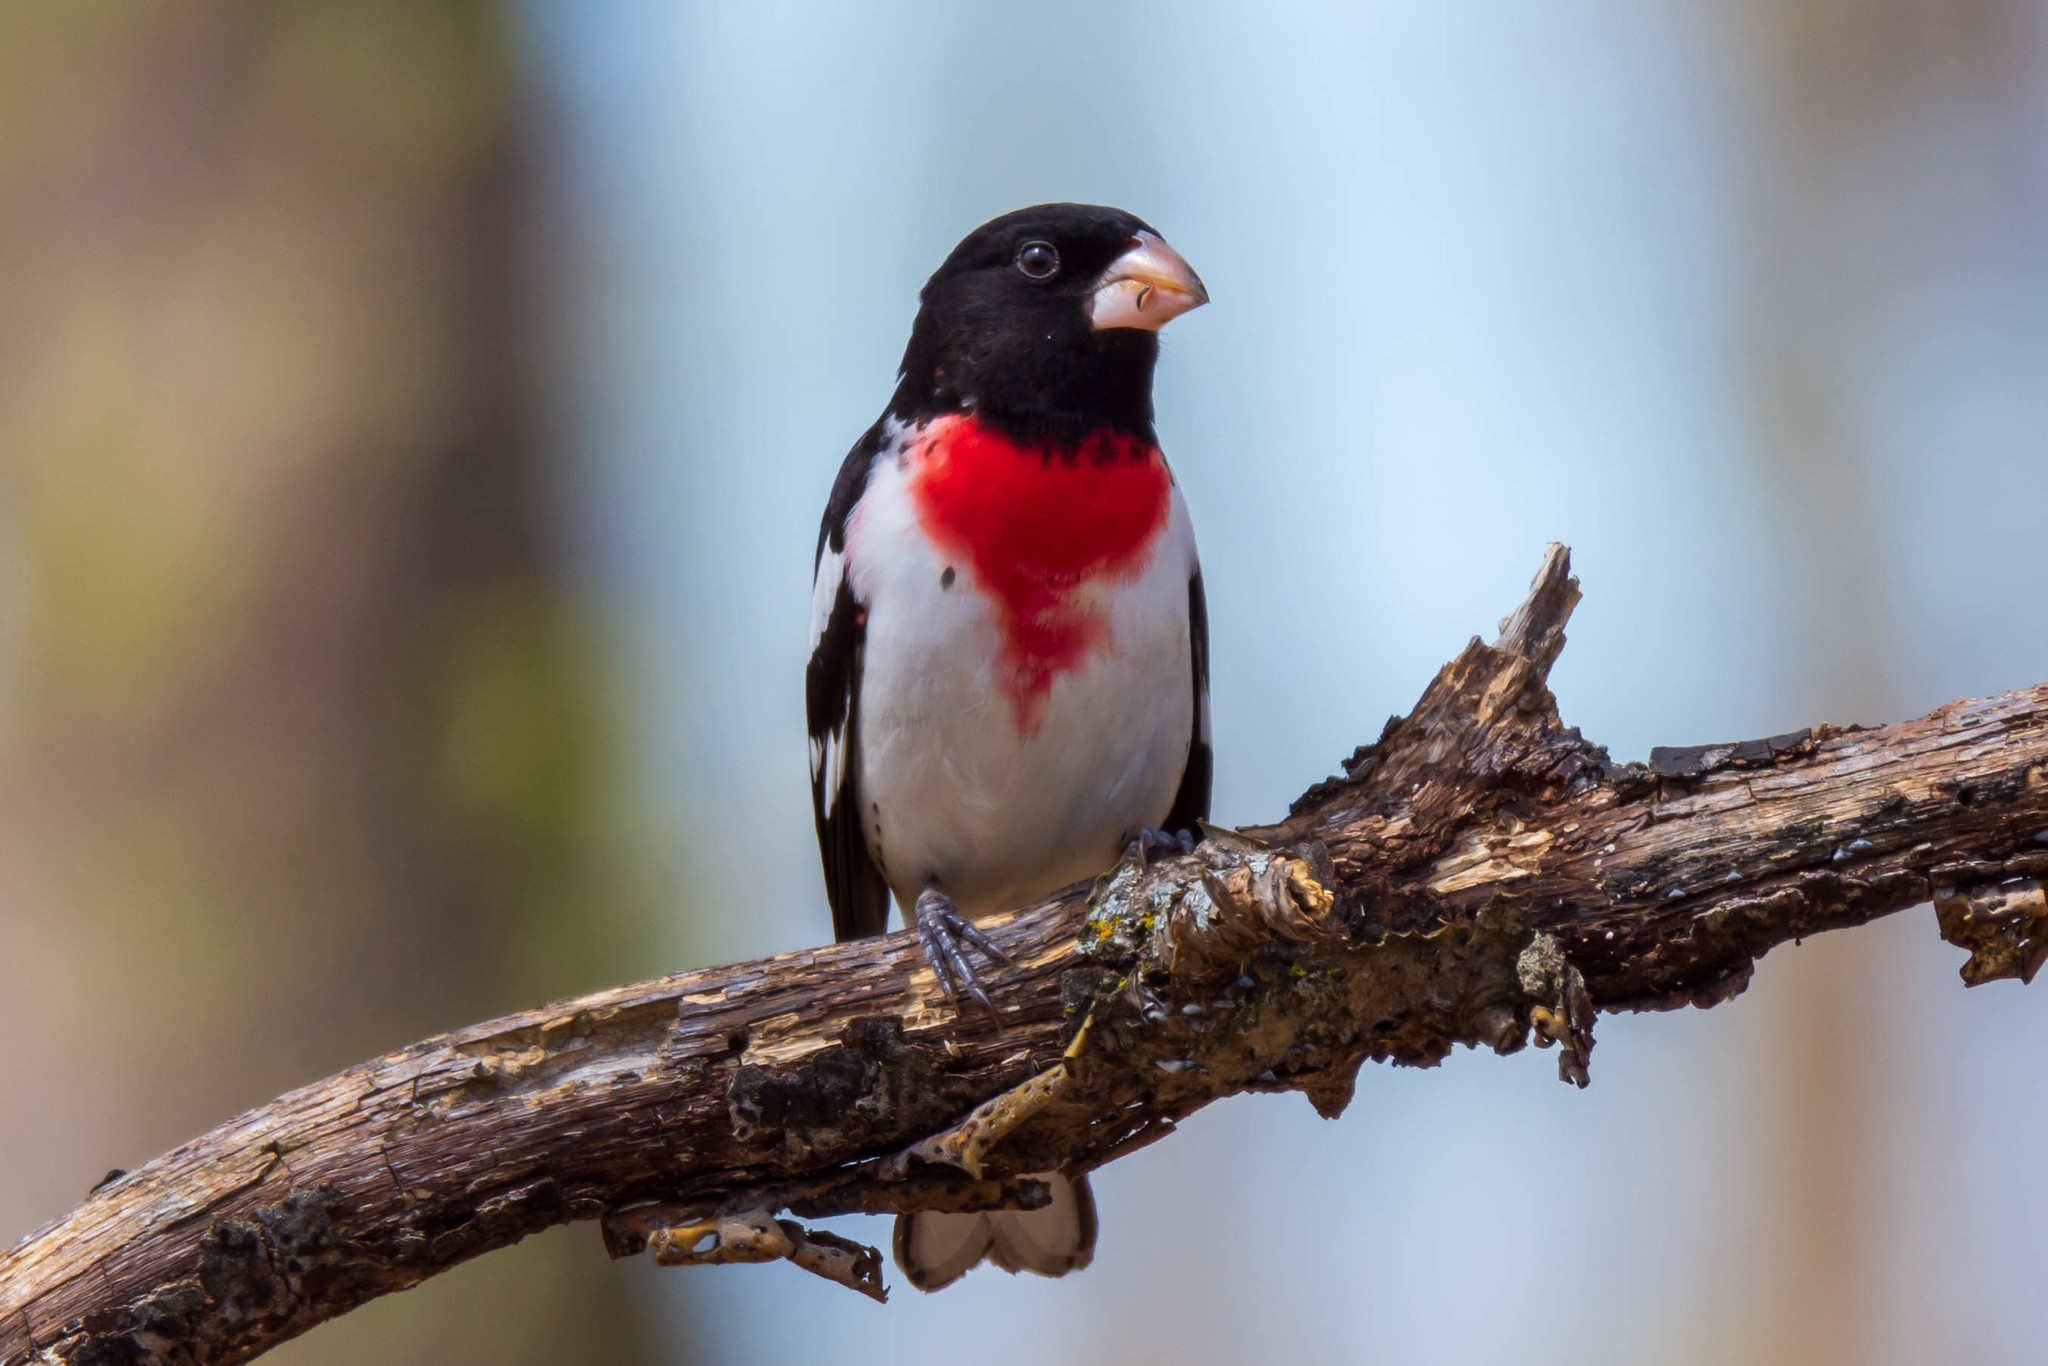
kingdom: Animalia
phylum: Chordata
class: Aves
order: Passeriformes
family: Cardinalidae
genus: Pheucticus
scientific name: Pheucticus ludovicianus
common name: Rose-breasted grosbeak
